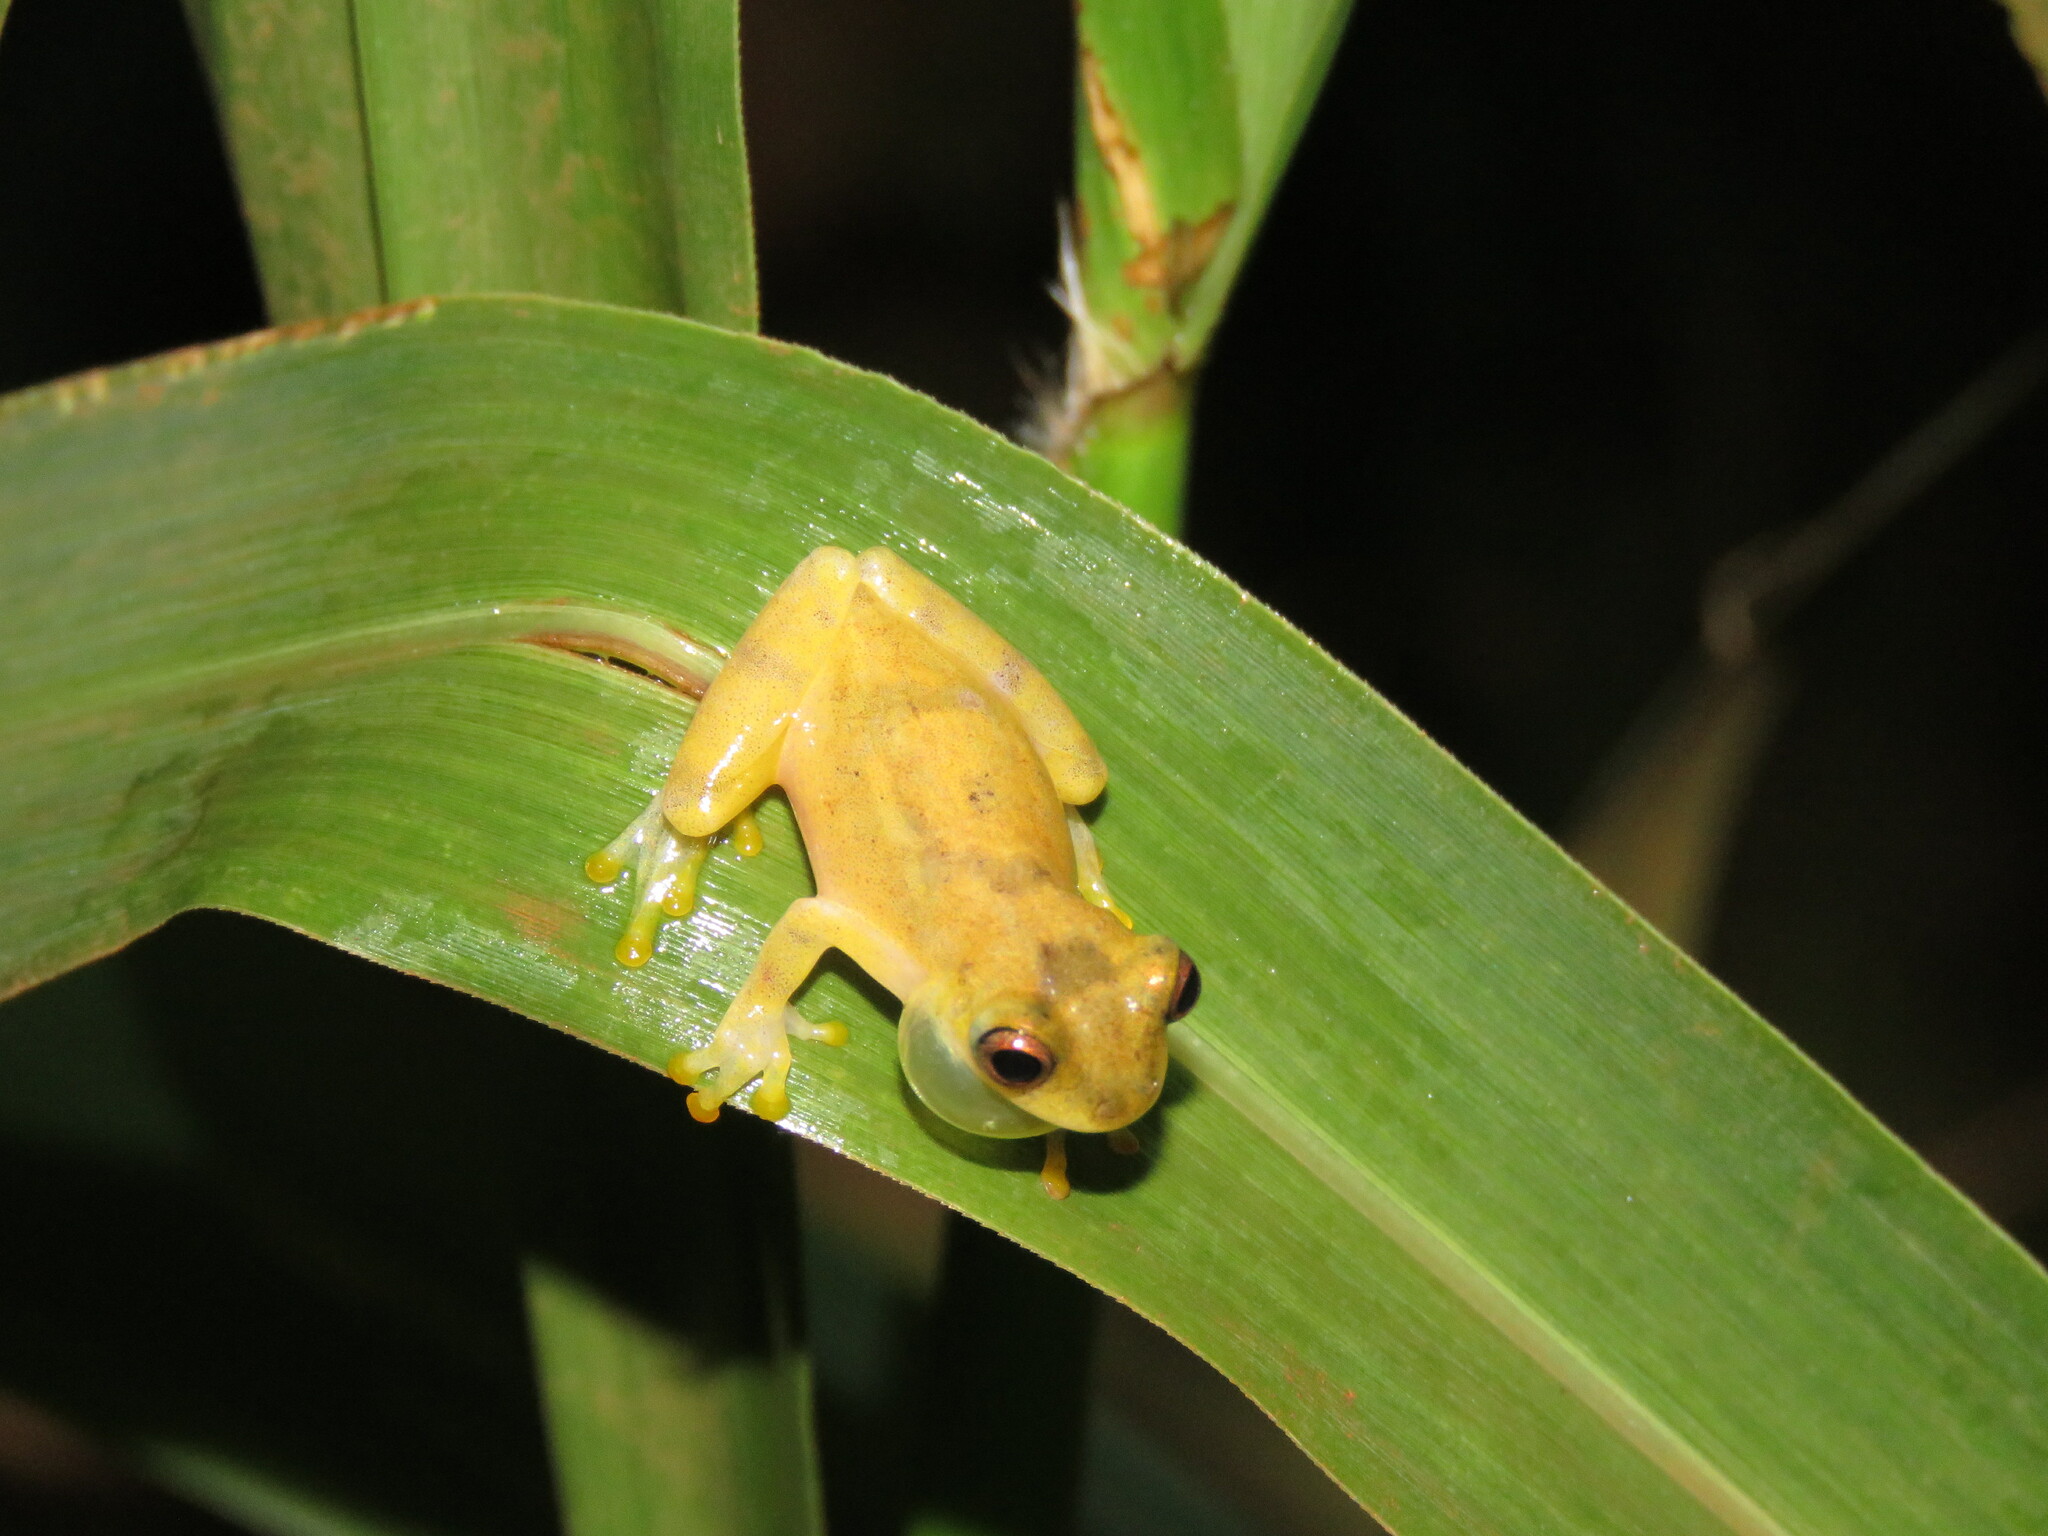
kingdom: Animalia
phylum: Chordata
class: Amphibia
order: Anura
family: Hylidae
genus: Dendropsophus
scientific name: Dendropsophus leali
